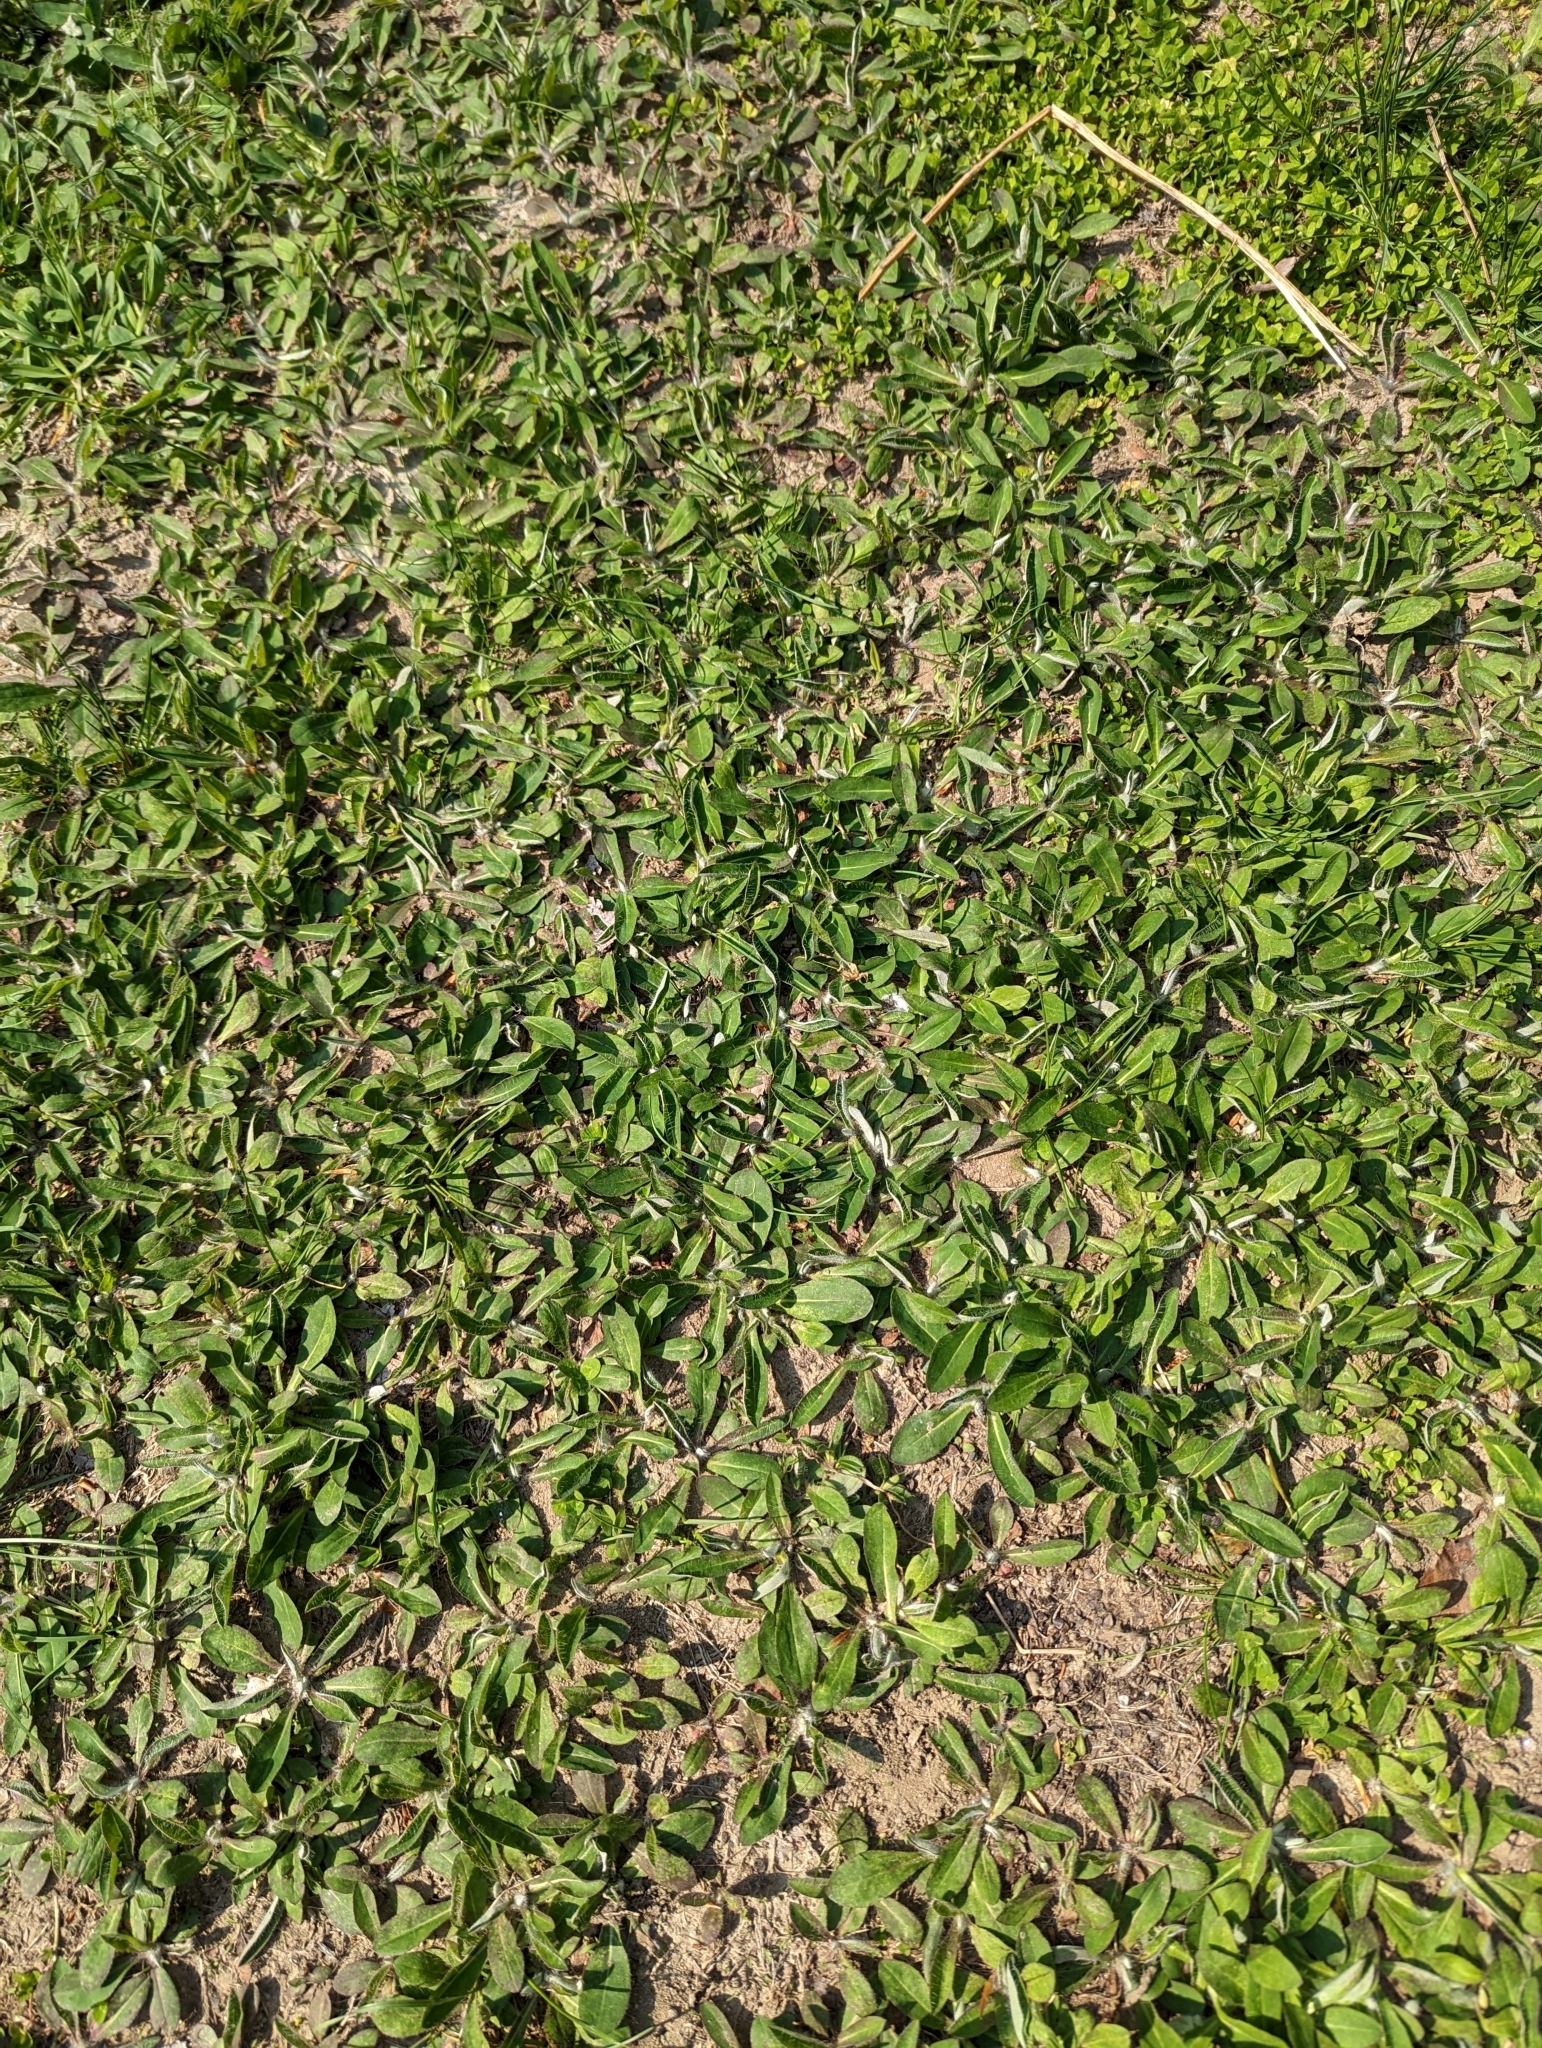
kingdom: Plantae
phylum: Tracheophyta
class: Magnoliopsida
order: Asterales
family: Asteraceae
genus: Pilosella
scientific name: Pilosella officinarum
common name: Mouse-ear hawkweed
